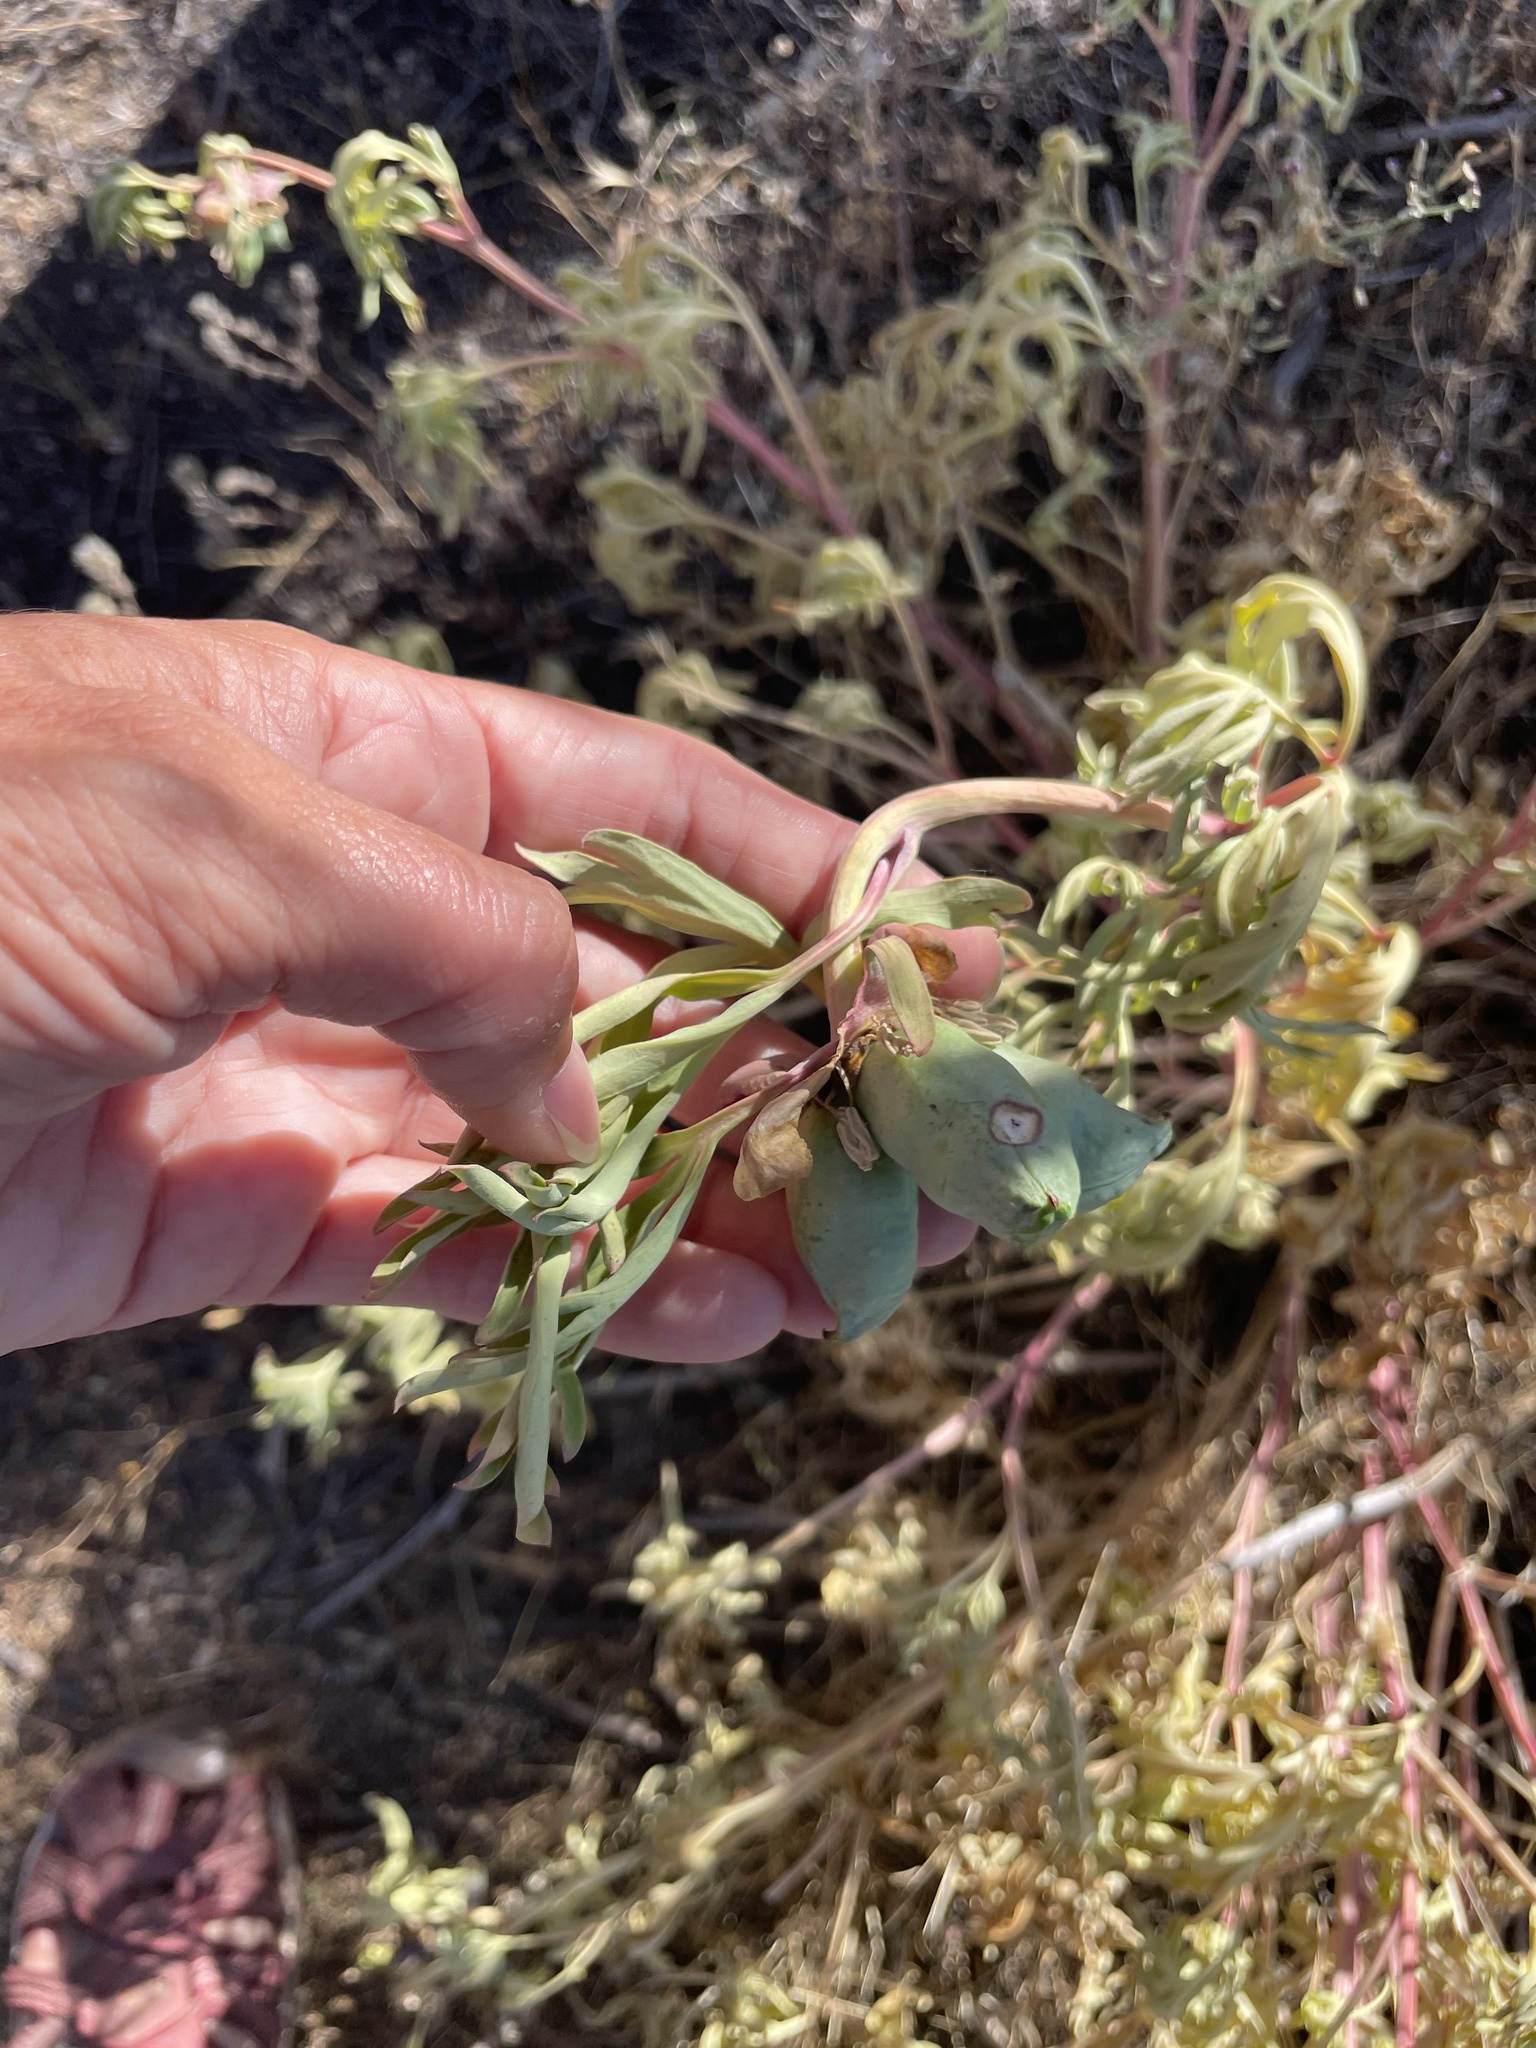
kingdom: Plantae
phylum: Tracheophyta
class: Magnoliopsida
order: Saxifragales
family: Paeoniaceae
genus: Paeonia
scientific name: Paeonia californica
